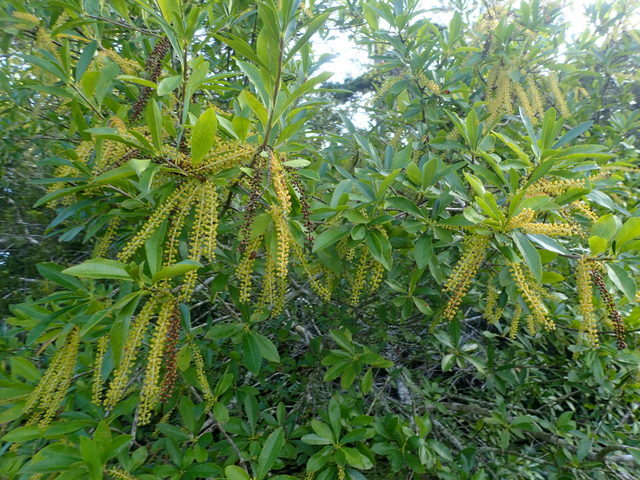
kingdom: Plantae
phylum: Tracheophyta
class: Magnoliopsida
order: Ericales
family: Cyrillaceae
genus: Cyrilla
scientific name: Cyrilla racemiflora
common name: Black titi
